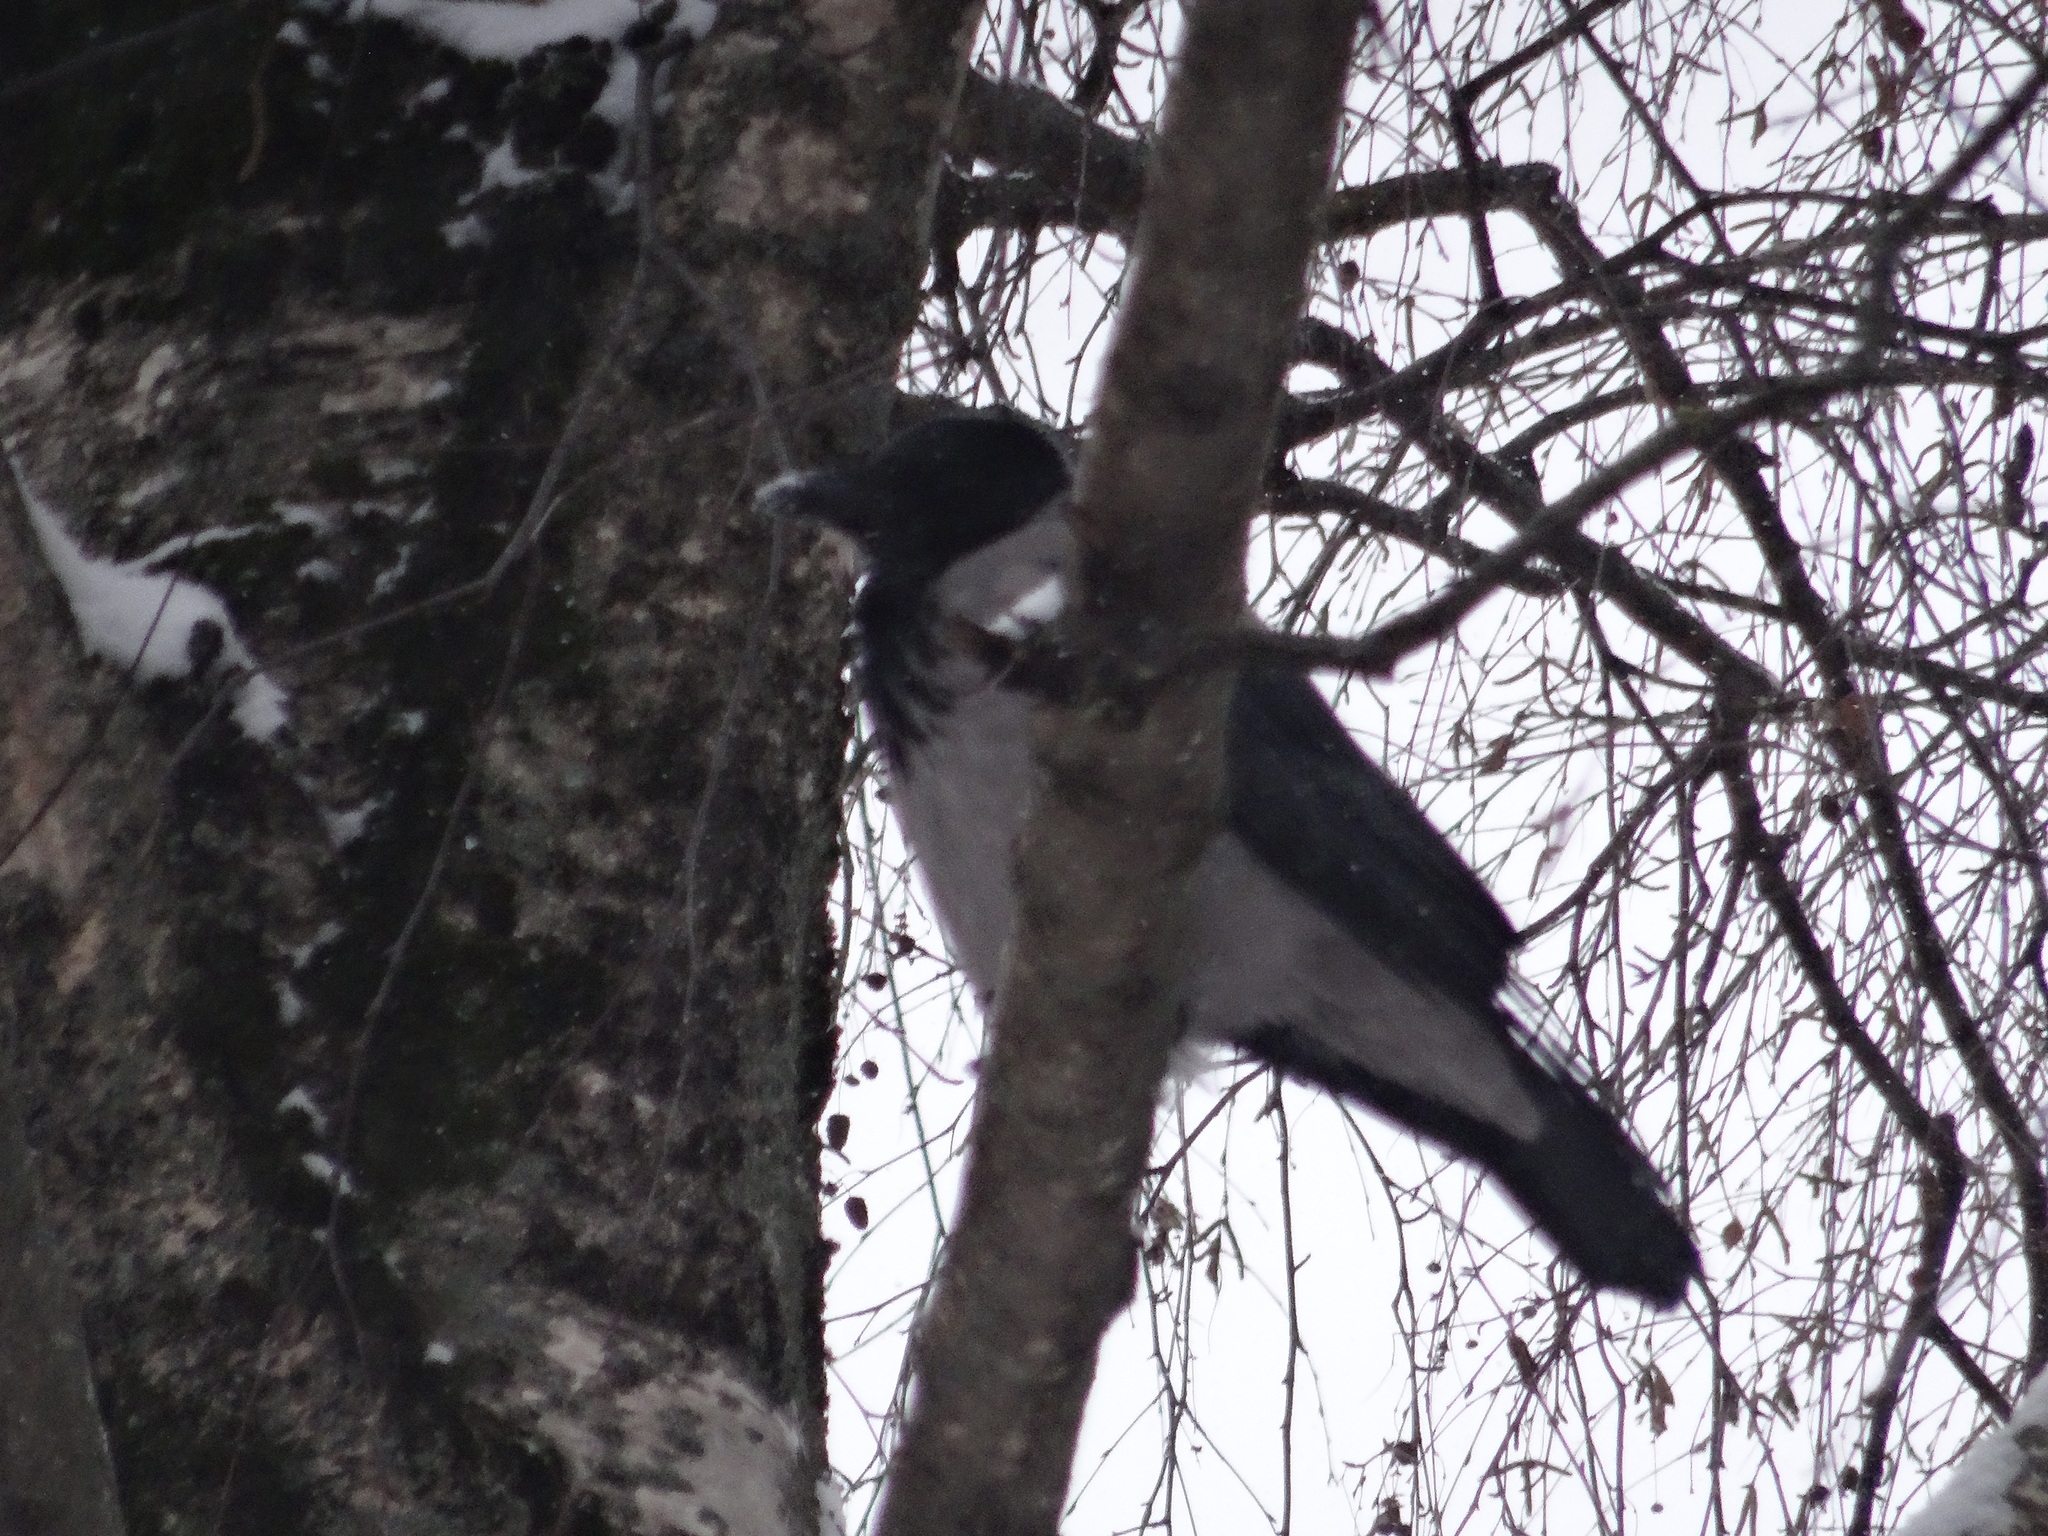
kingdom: Animalia
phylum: Chordata
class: Aves
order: Passeriformes
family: Corvidae
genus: Corvus
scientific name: Corvus cornix
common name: Hooded crow
